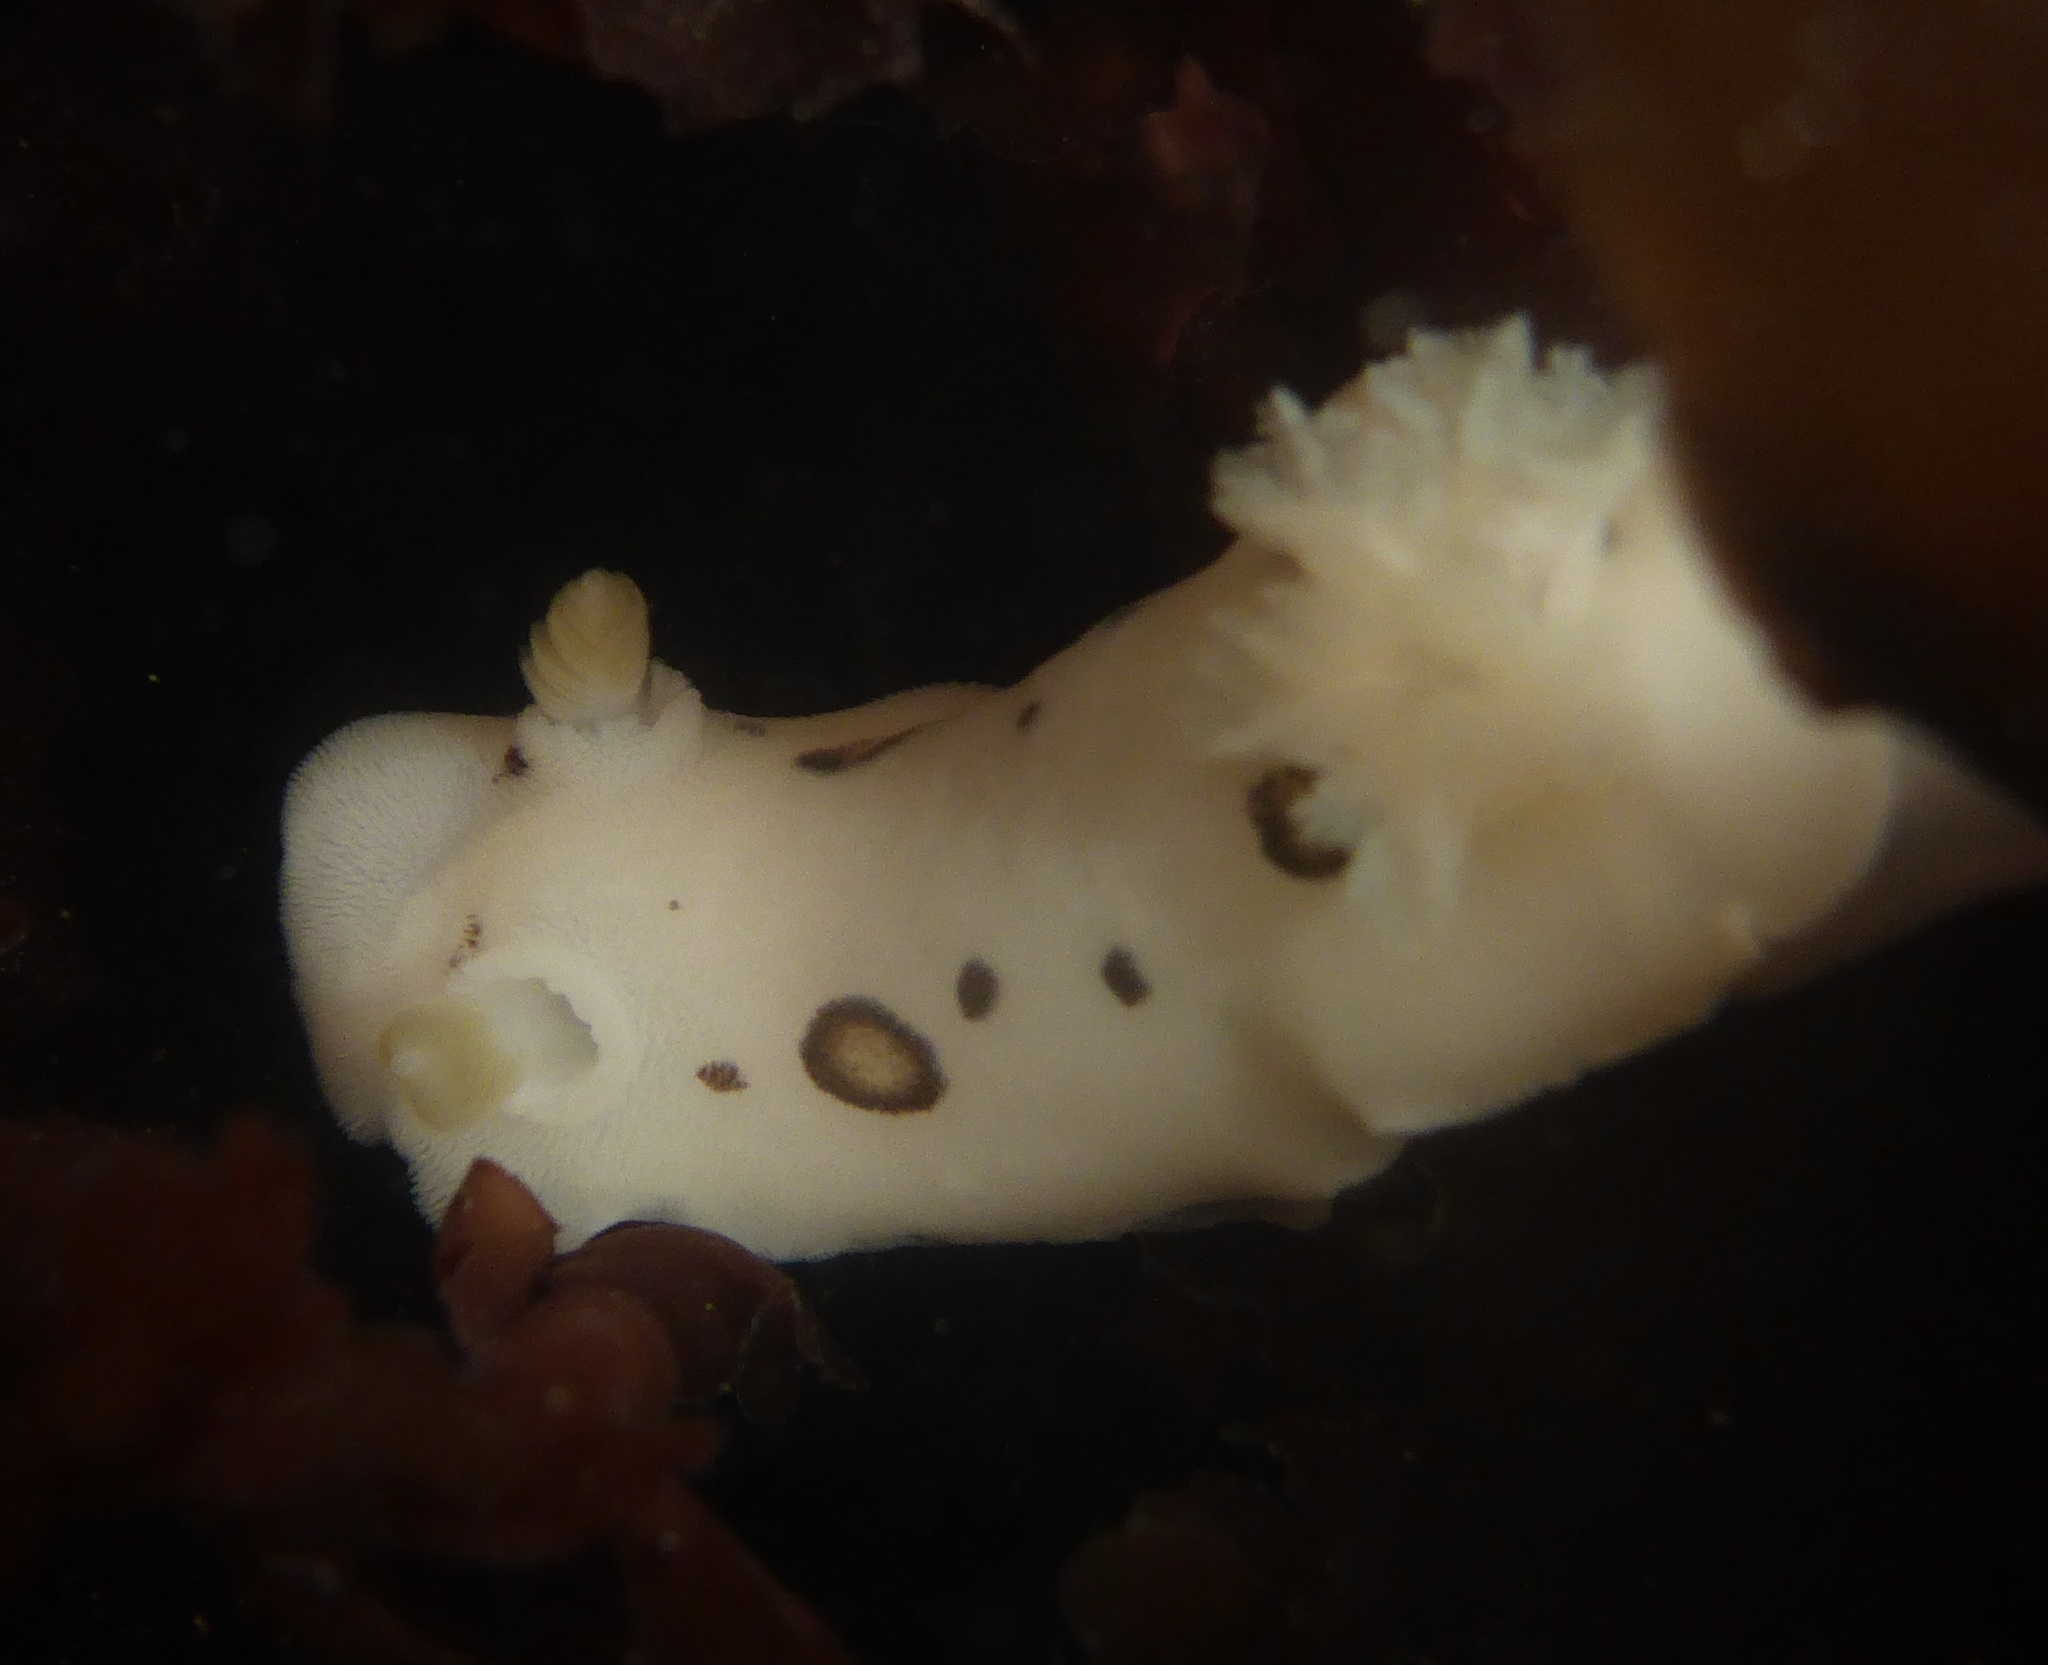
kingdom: Animalia
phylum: Mollusca
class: Gastropoda
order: Nudibranchia
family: Discodorididae
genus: Diaulula
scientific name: Diaulula sandiegensis
